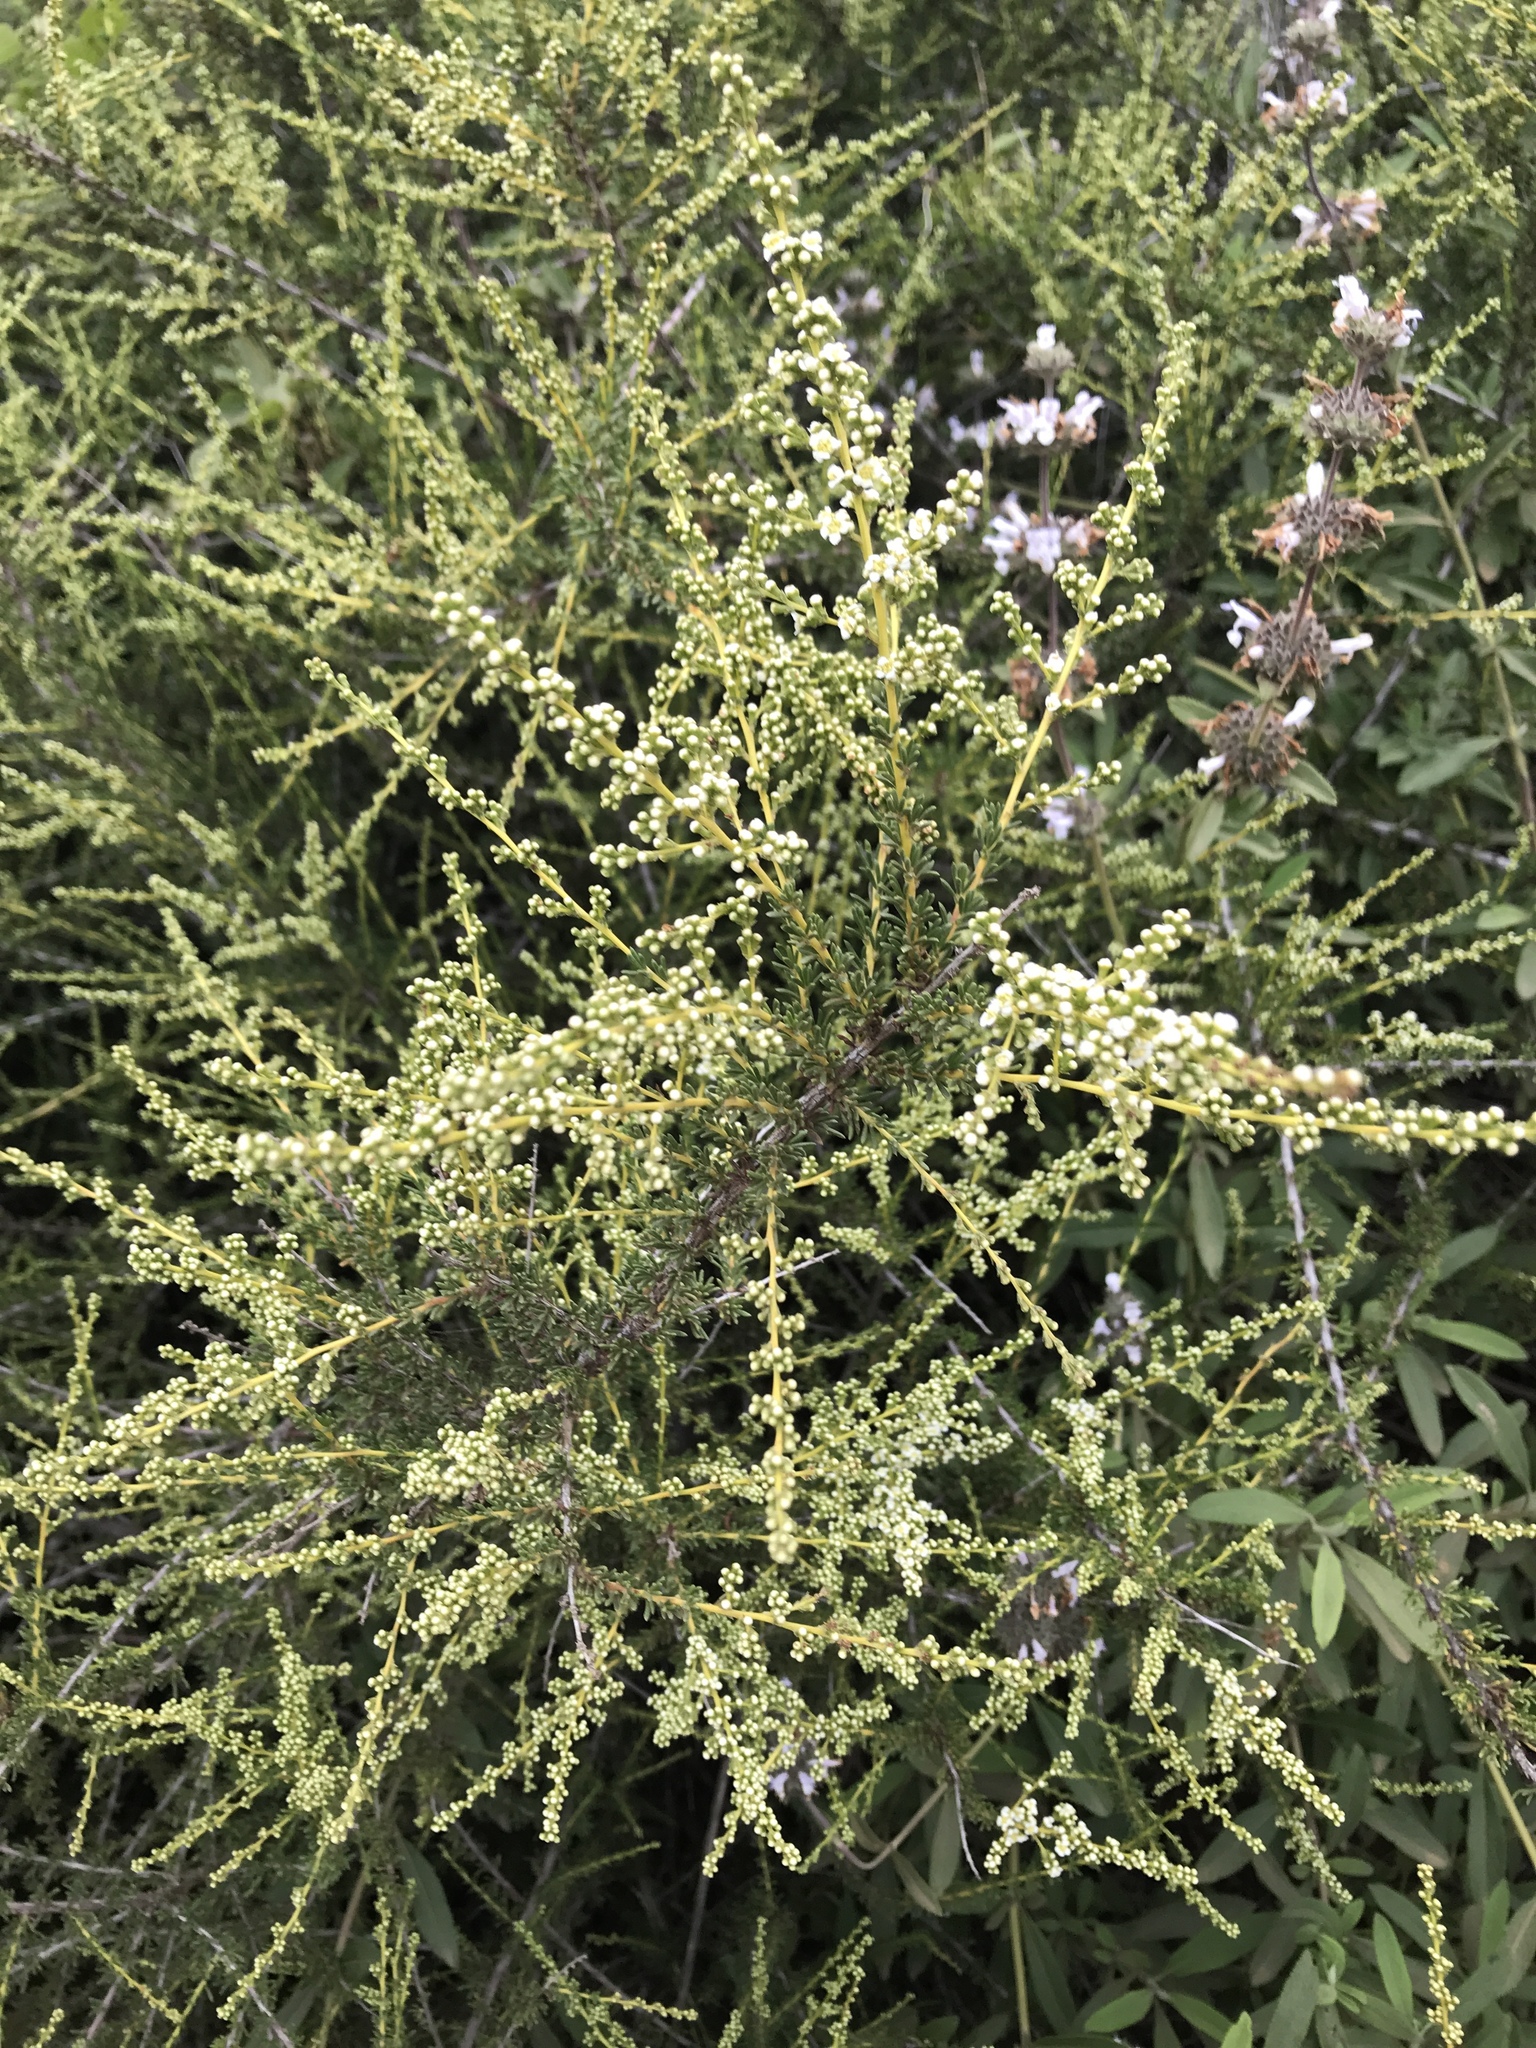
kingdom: Plantae
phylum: Tracheophyta
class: Magnoliopsida
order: Rosales
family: Rosaceae
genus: Adenostoma
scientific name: Adenostoma fasciculatum
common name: Chamise
